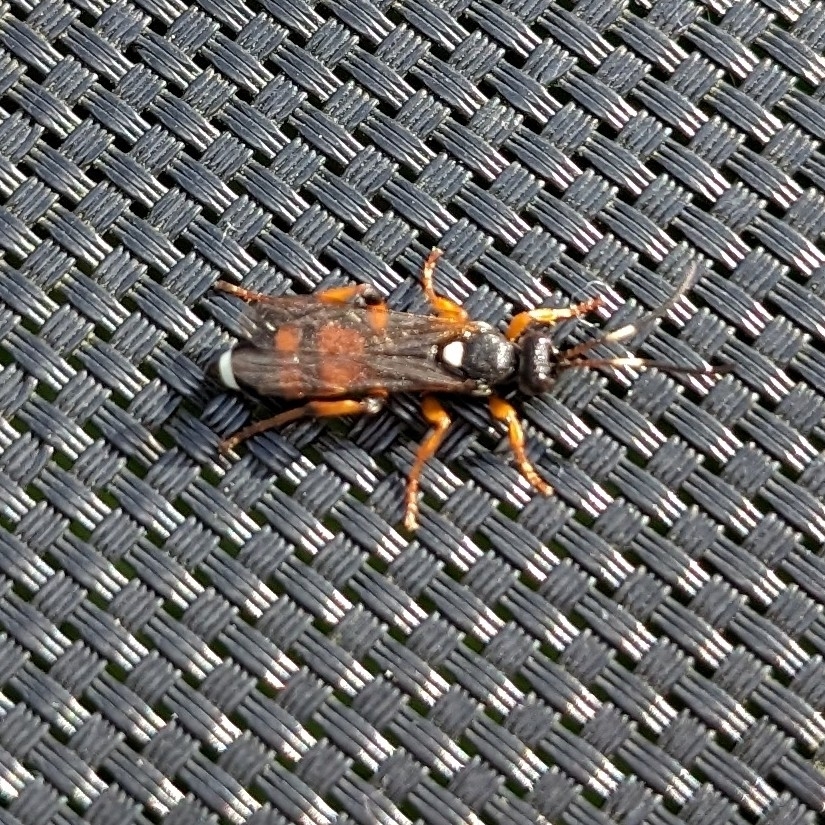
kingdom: Animalia
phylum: Arthropoda
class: Insecta
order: Hymenoptera
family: Ichneumonidae
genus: Ichneumon
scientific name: Ichneumon sarcitorius
